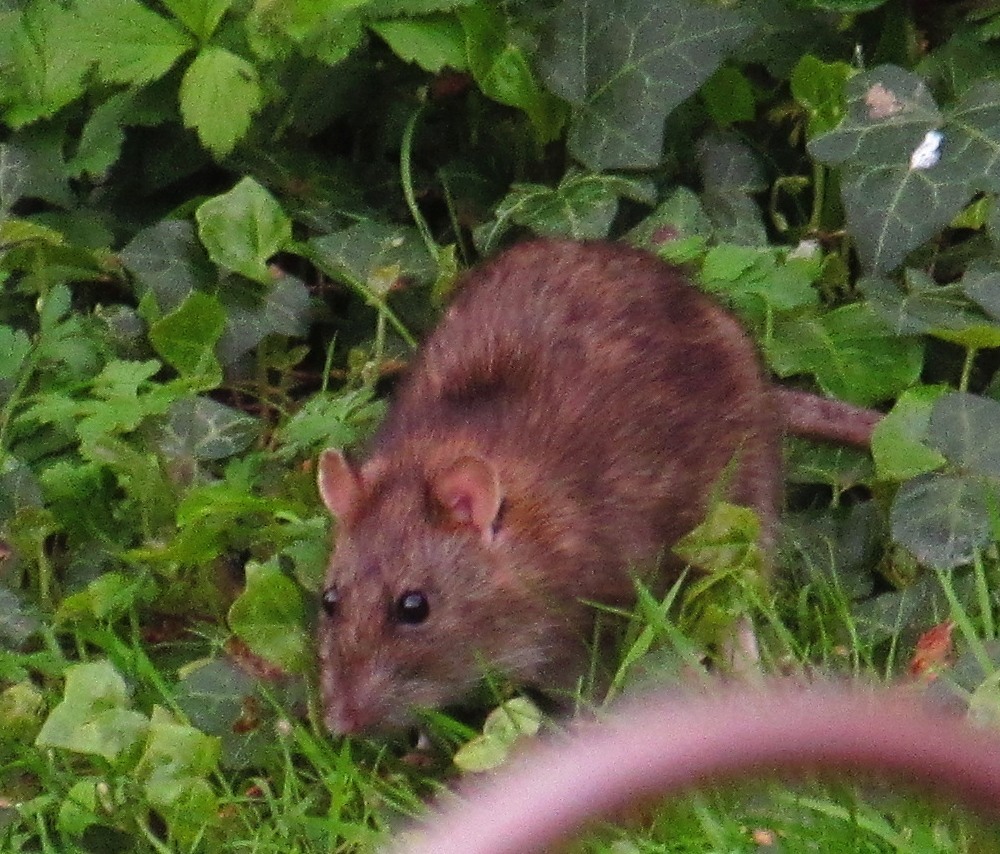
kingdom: Animalia
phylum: Chordata
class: Mammalia
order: Rodentia
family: Muridae
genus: Rattus
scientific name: Rattus norvegicus
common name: Brown rat
